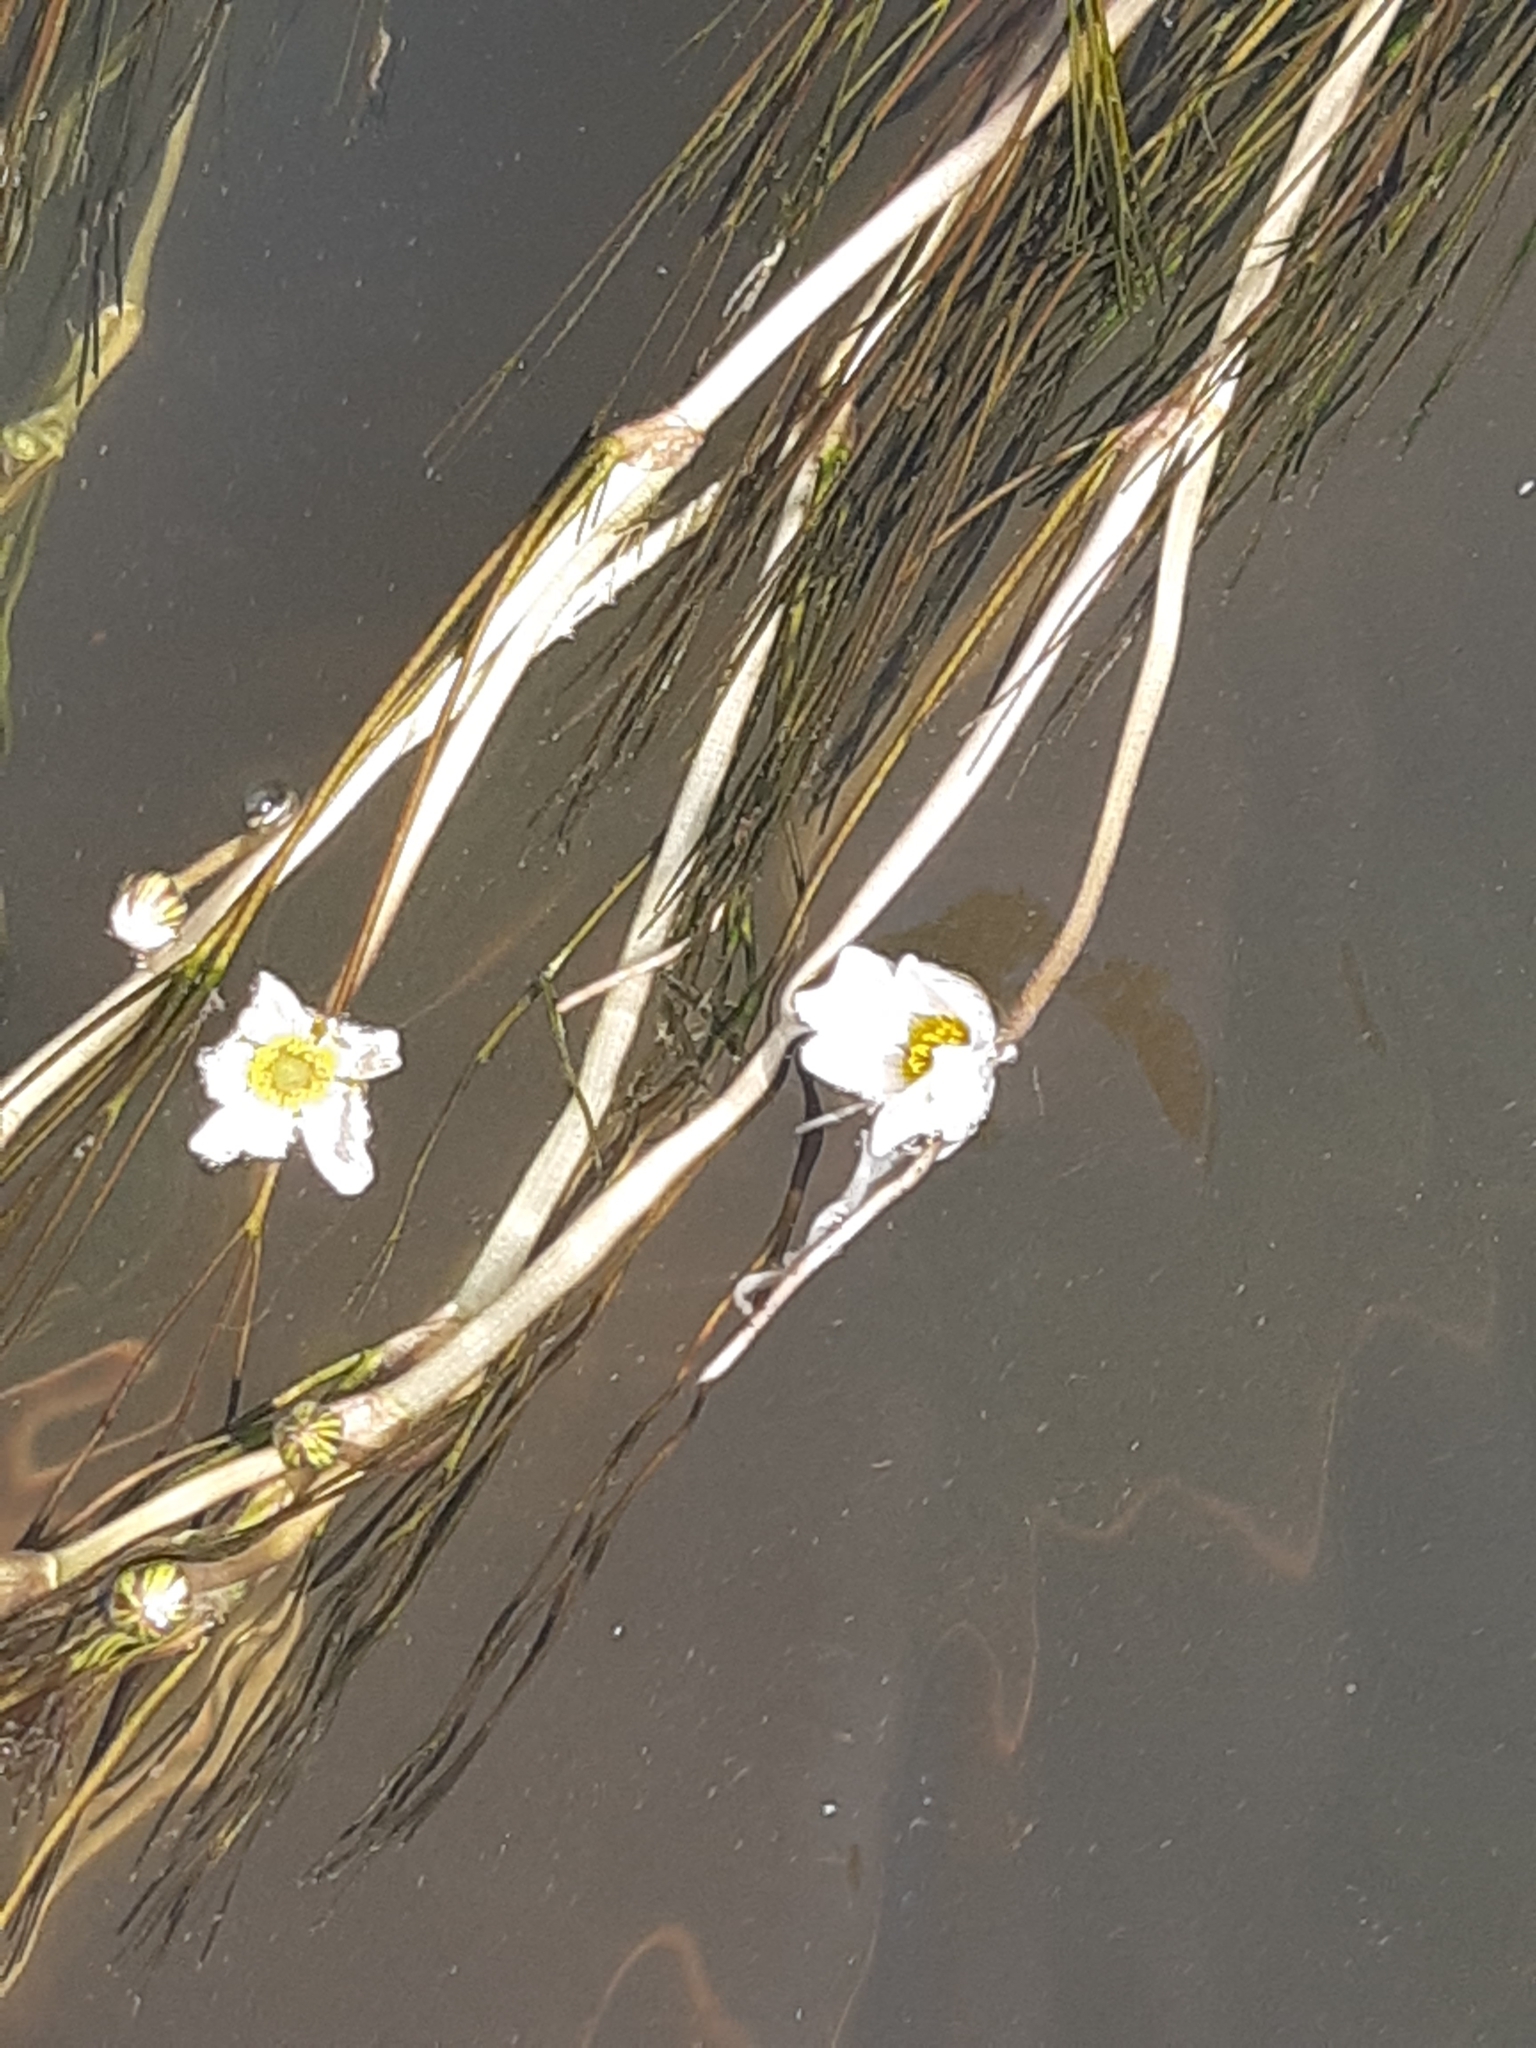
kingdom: Plantae
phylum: Tracheophyta
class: Magnoliopsida
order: Ranunculales
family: Ranunculaceae
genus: Ranunculus
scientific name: Ranunculus fluitans
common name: River water-crowfoot
